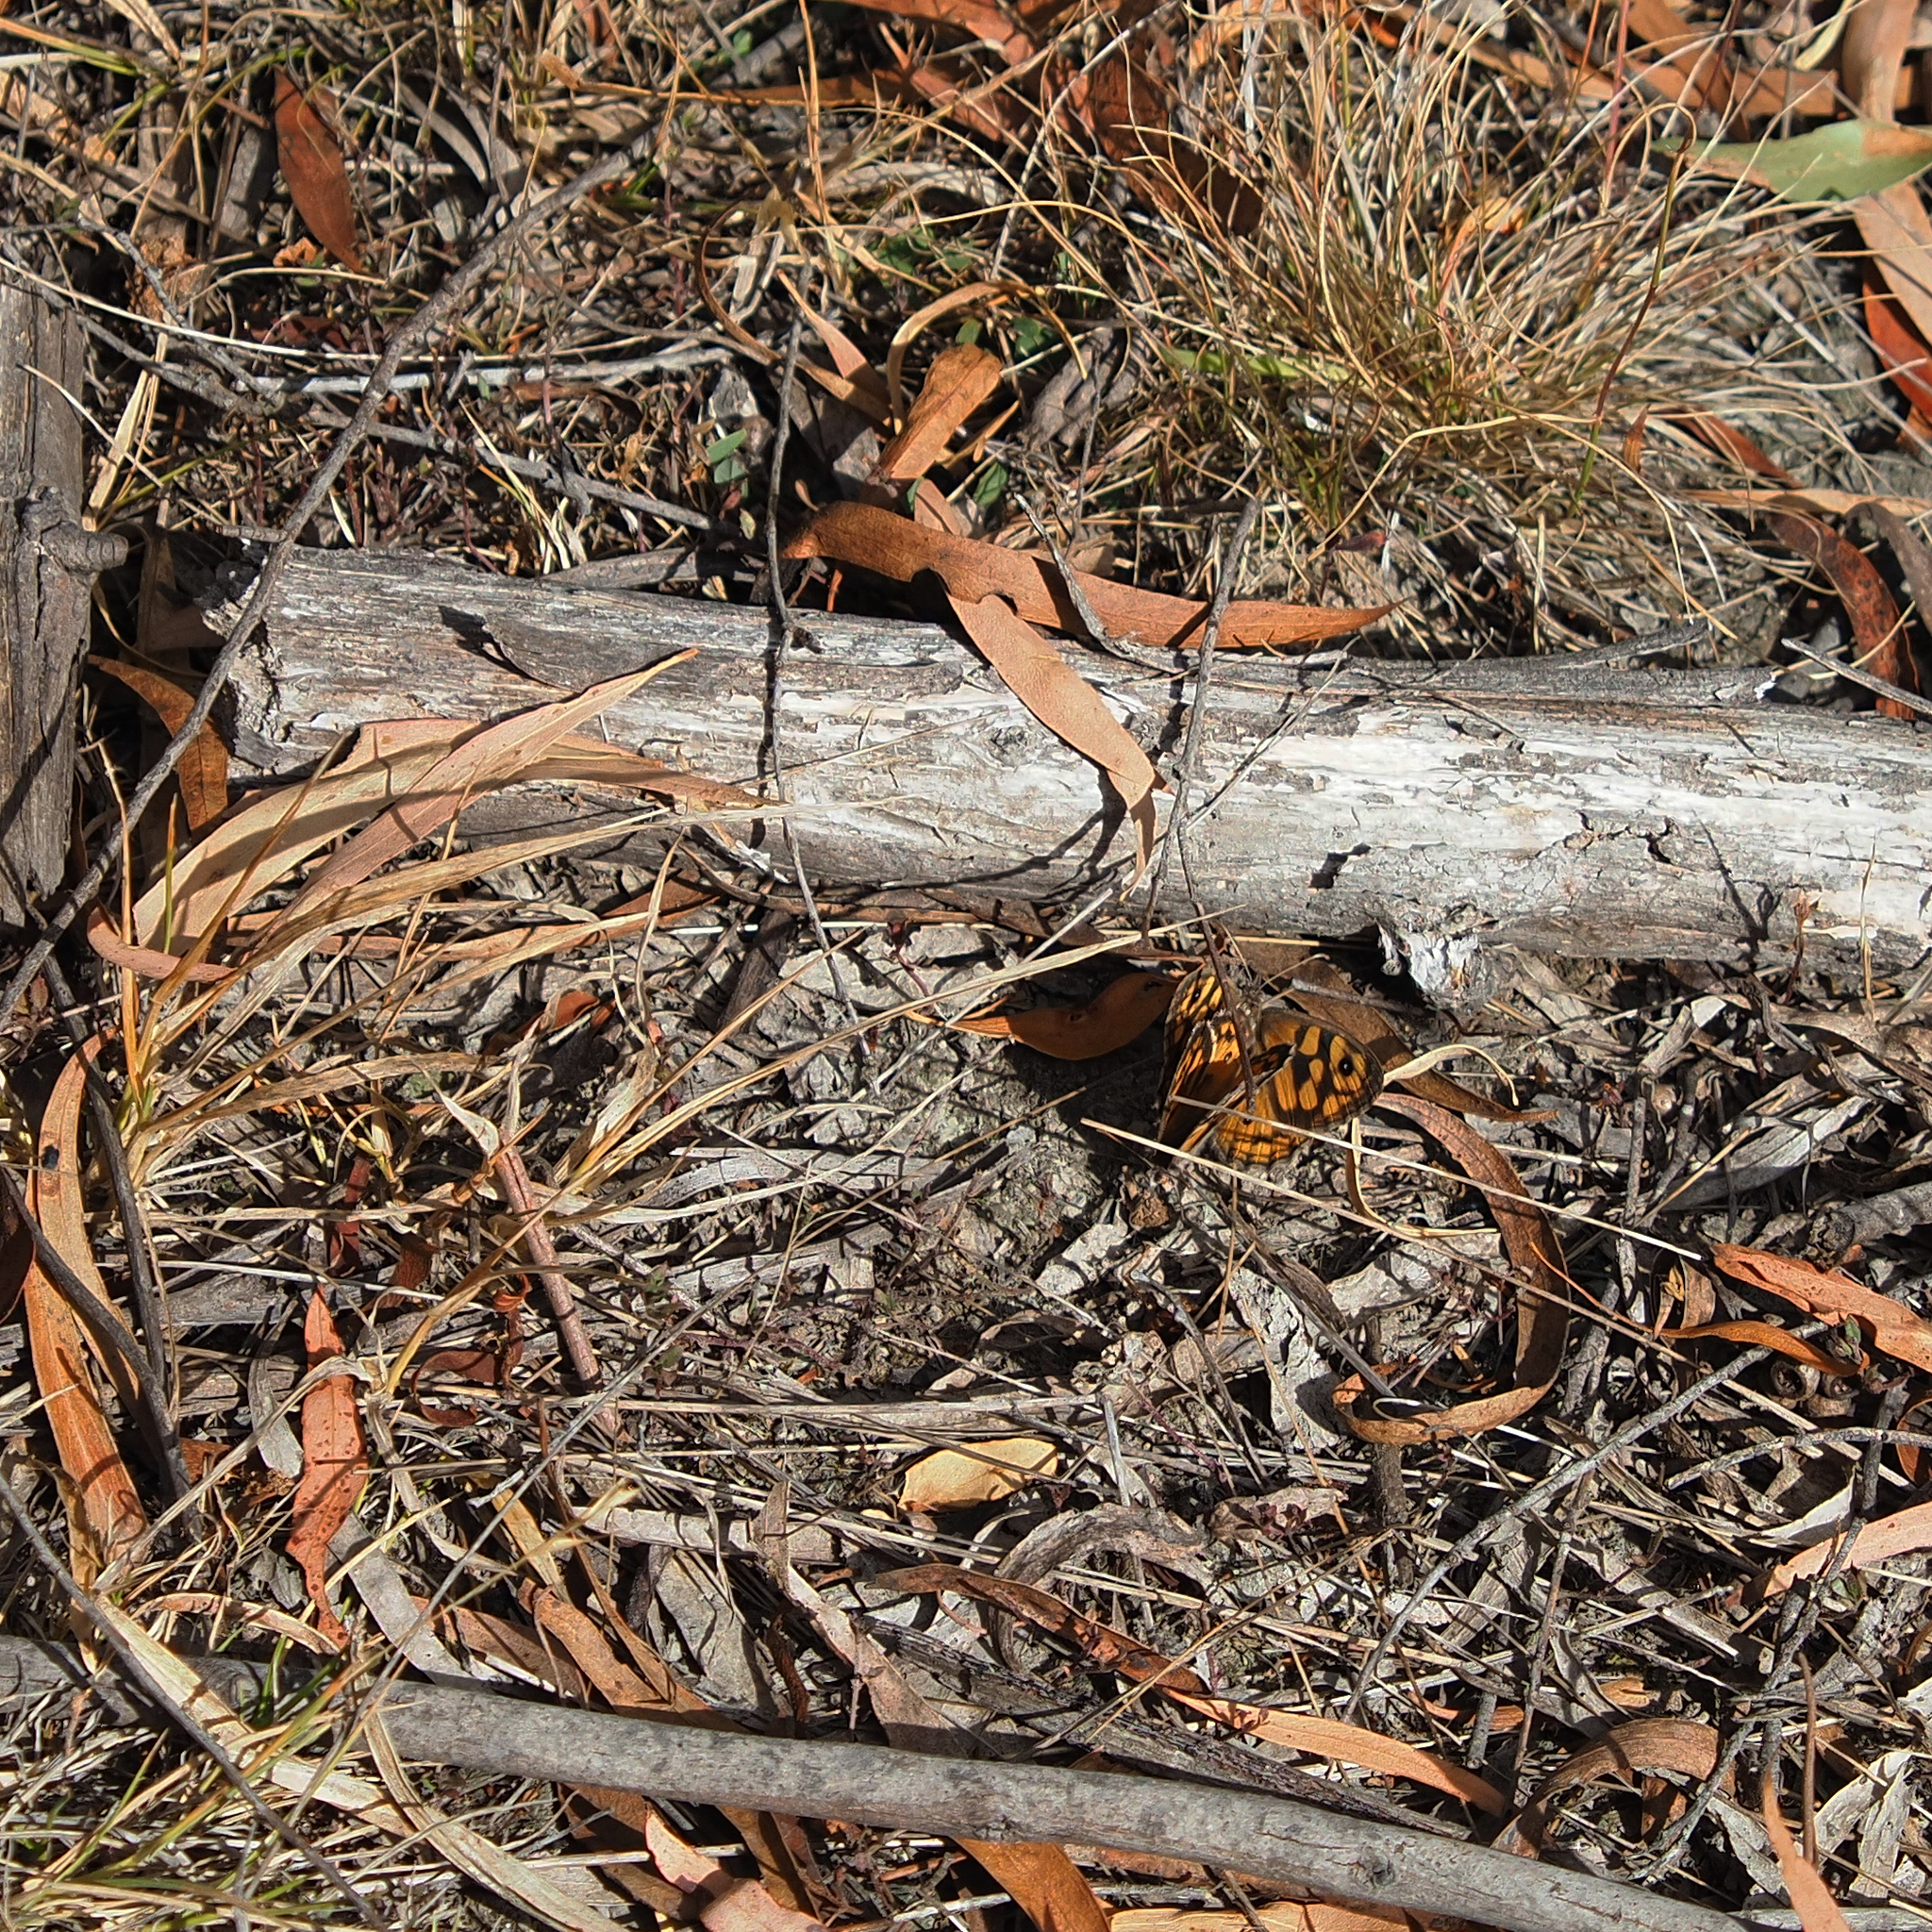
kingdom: Animalia
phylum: Arthropoda
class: Insecta
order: Lepidoptera
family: Nymphalidae
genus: Geitoneura
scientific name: Geitoneura klugii
